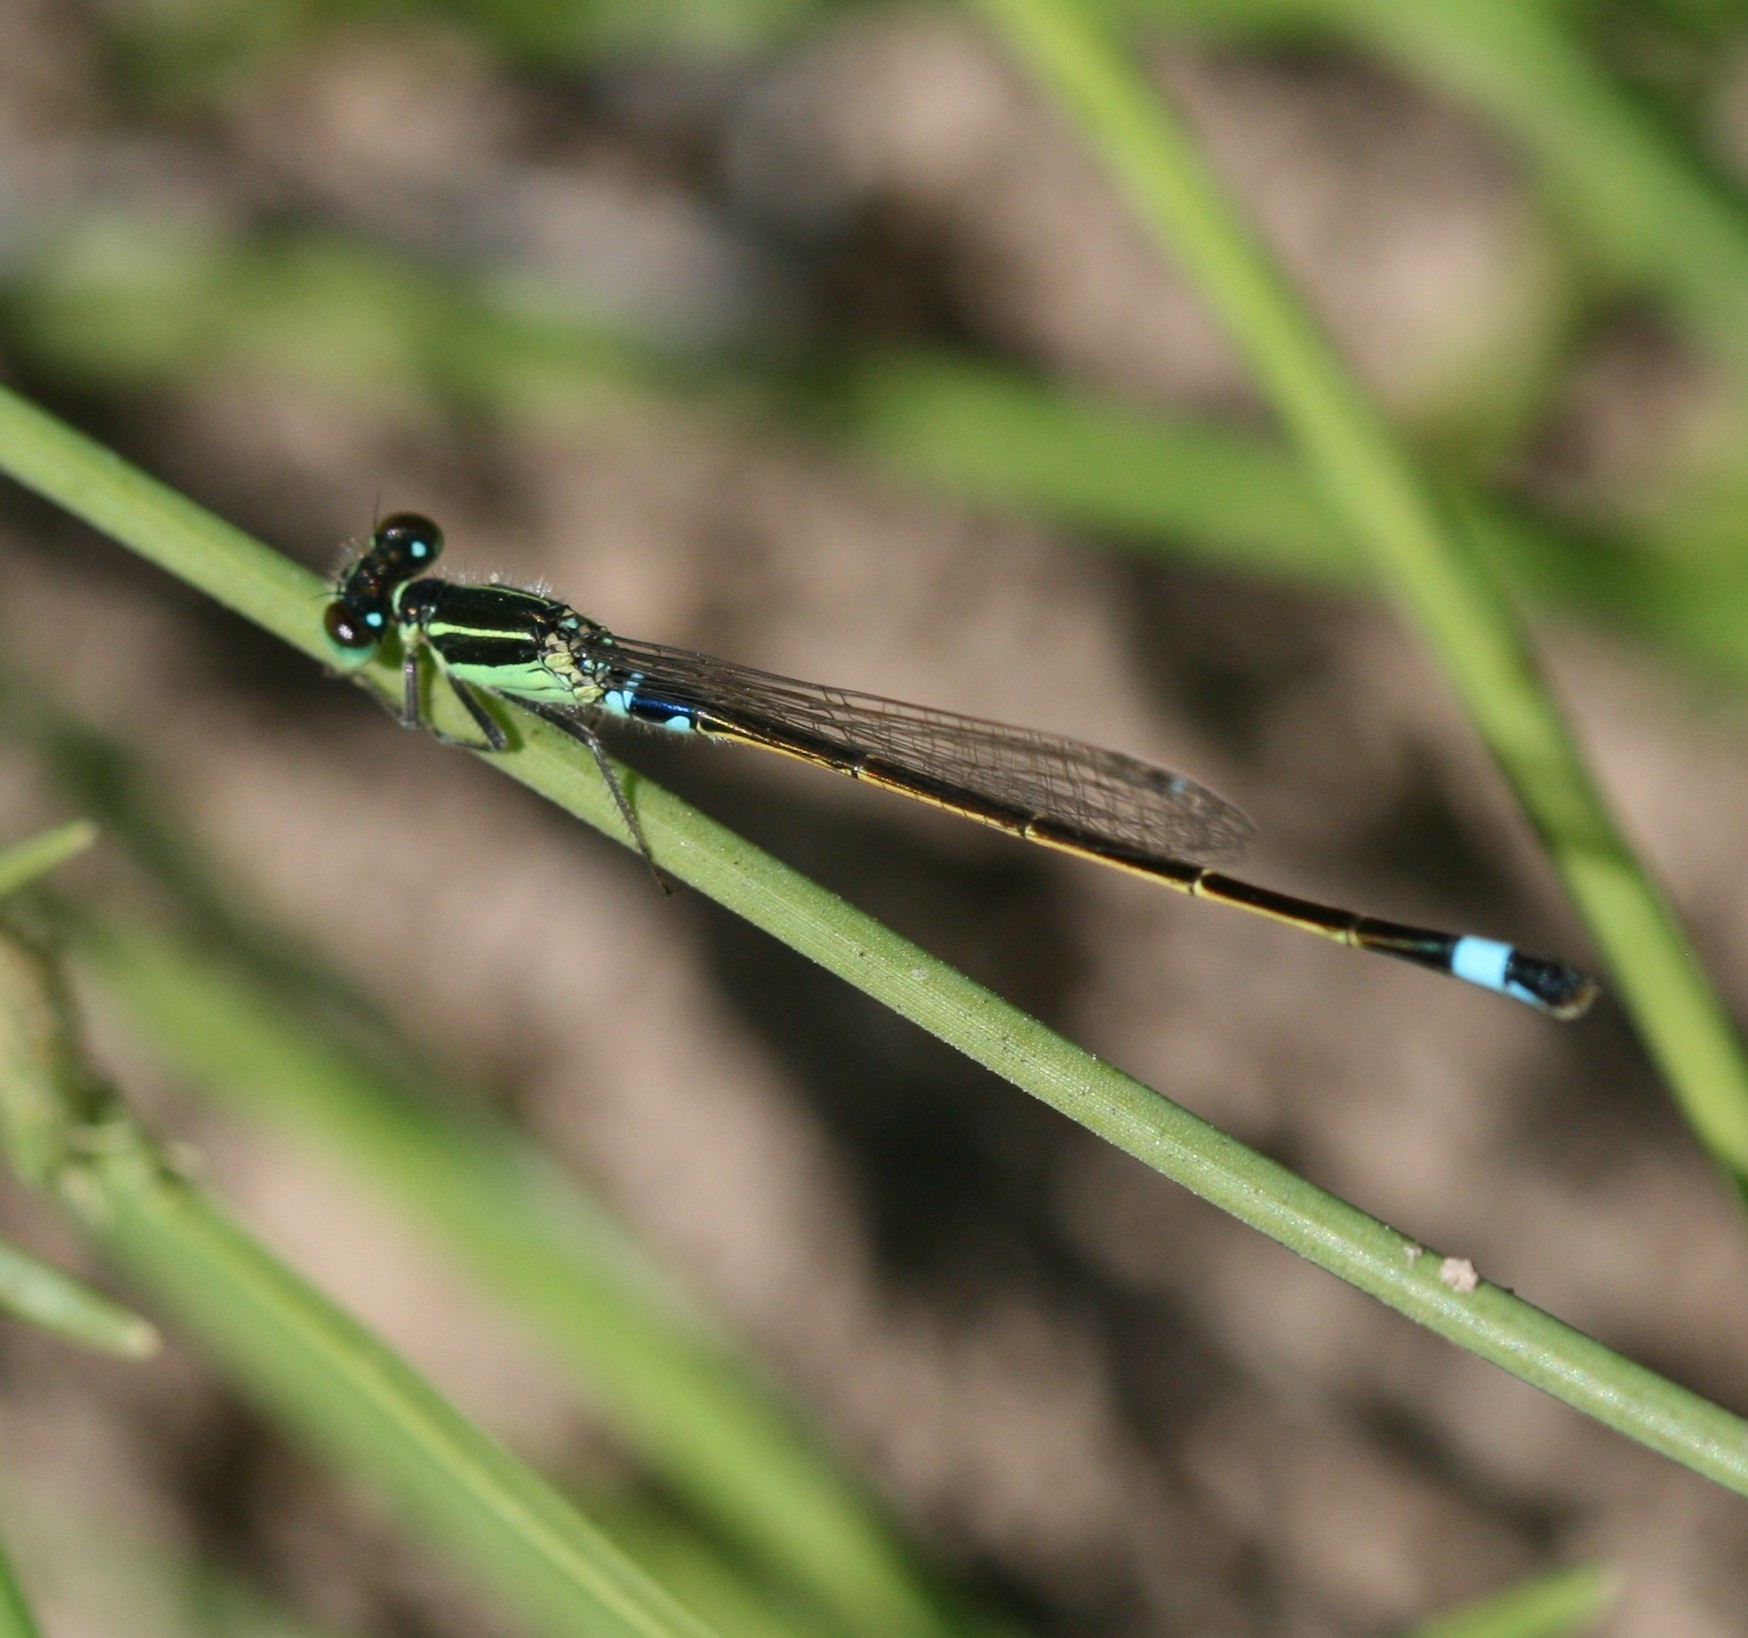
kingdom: Animalia
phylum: Arthropoda
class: Insecta
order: Odonata
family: Coenagrionidae
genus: Ischnura
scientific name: Ischnura senegalensis
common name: Tropical bluetail
